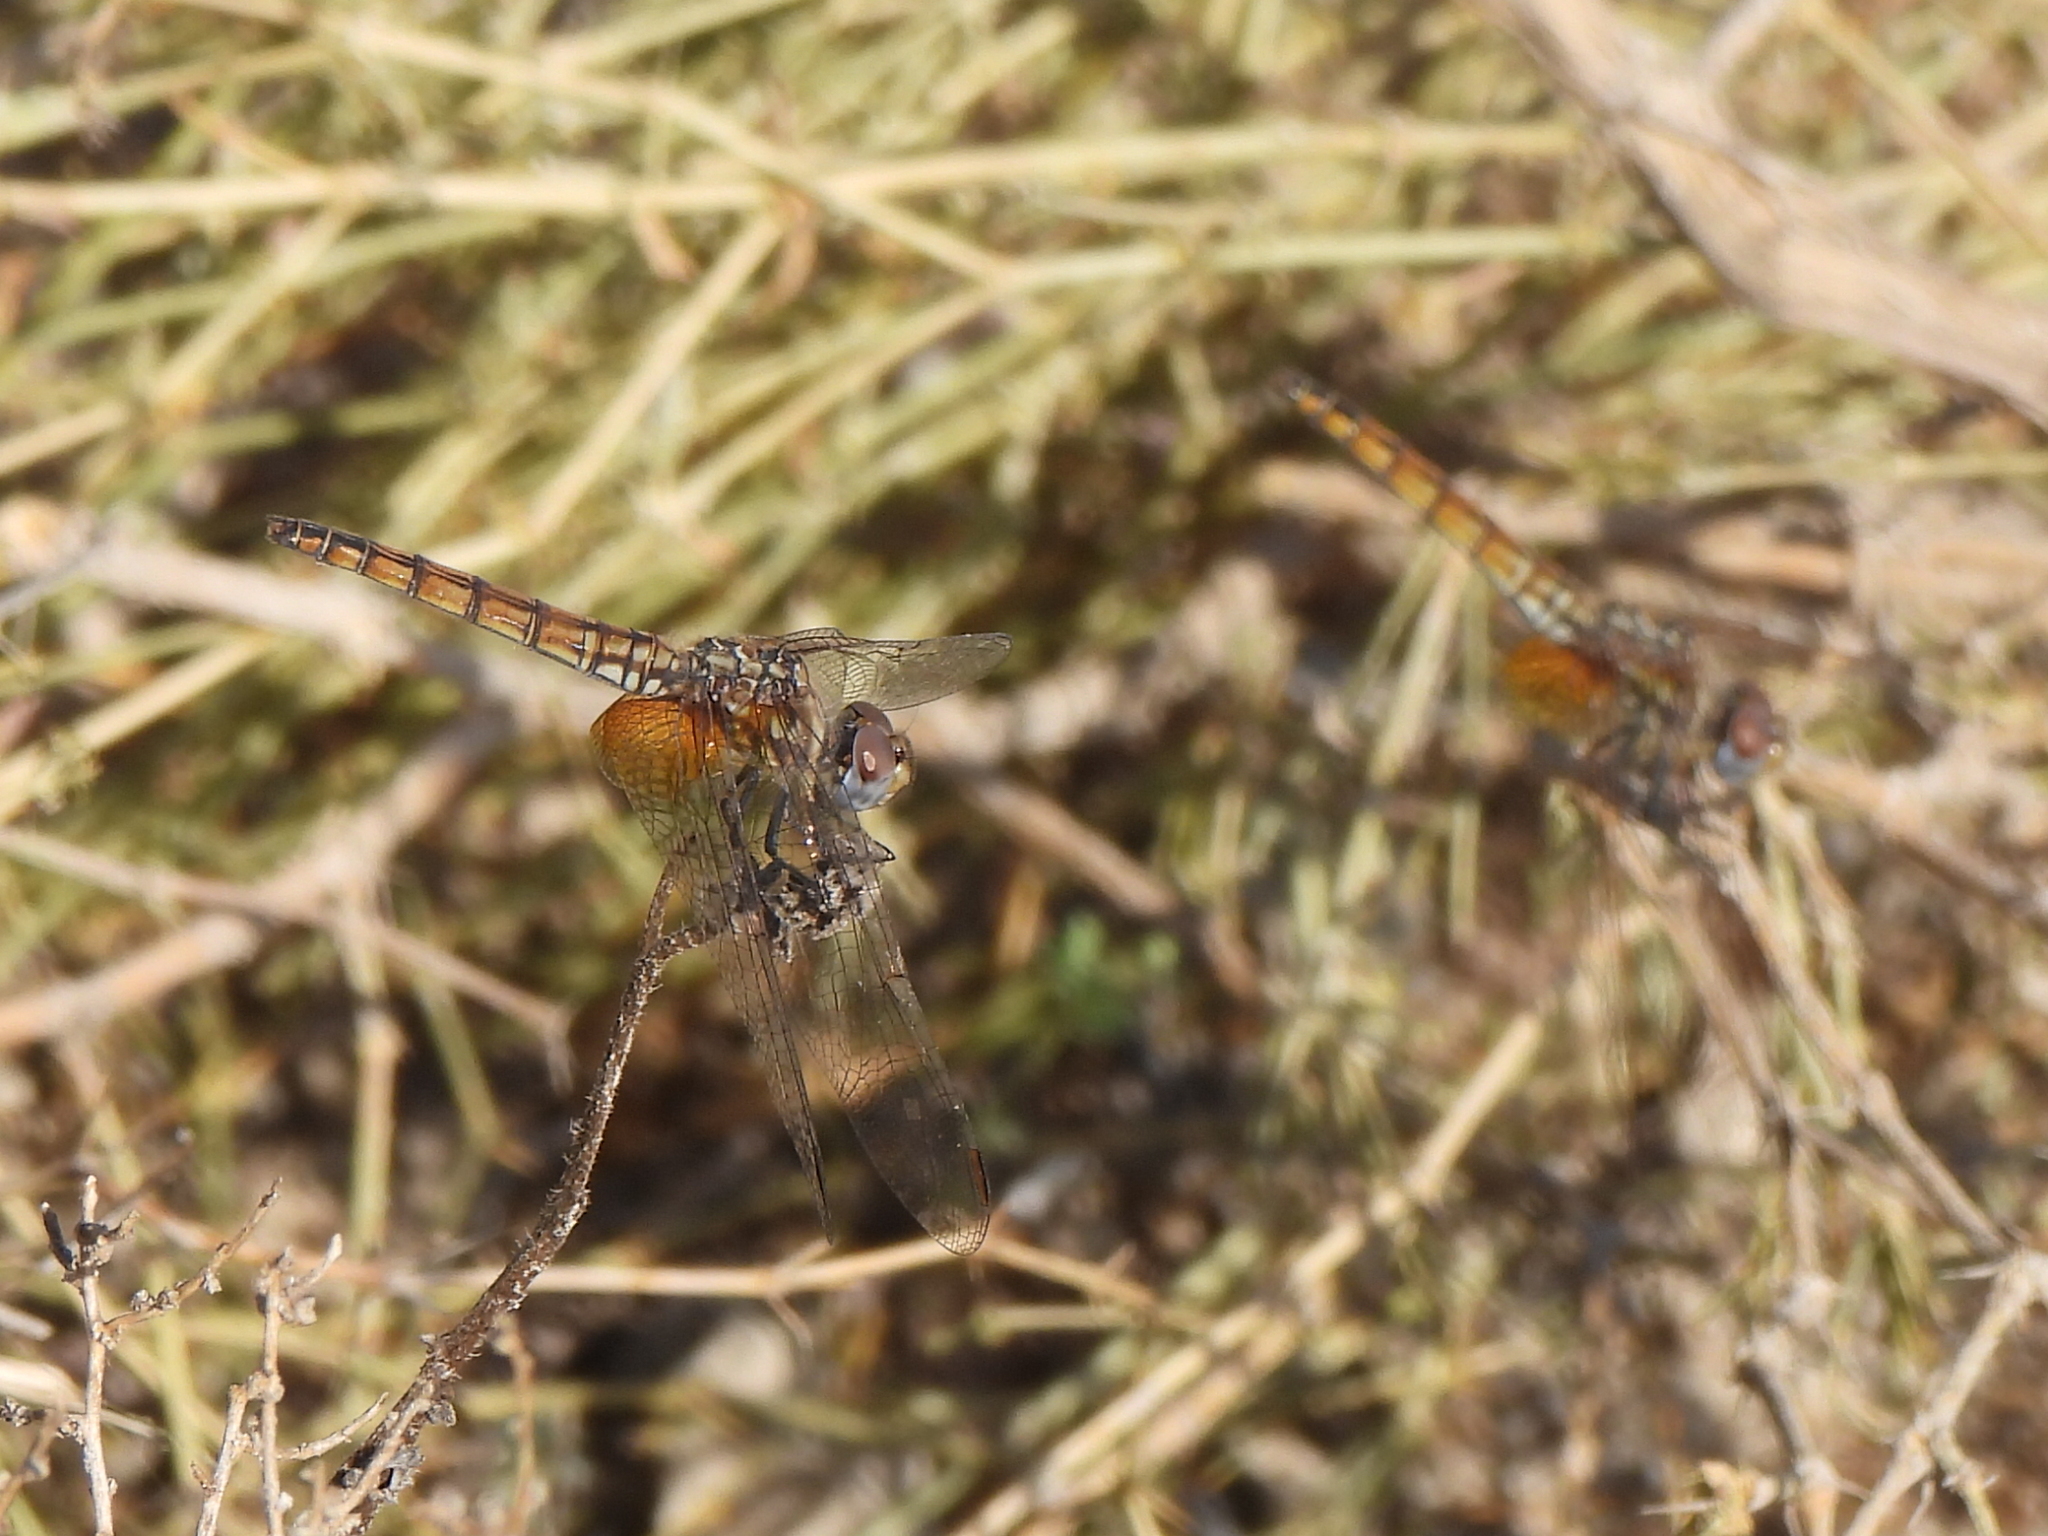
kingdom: Animalia
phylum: Arthropoda
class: Insecta
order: Odonata
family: Libellulidae
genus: Trithemis
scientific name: Trithemis annulata
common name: Violet dropwing
